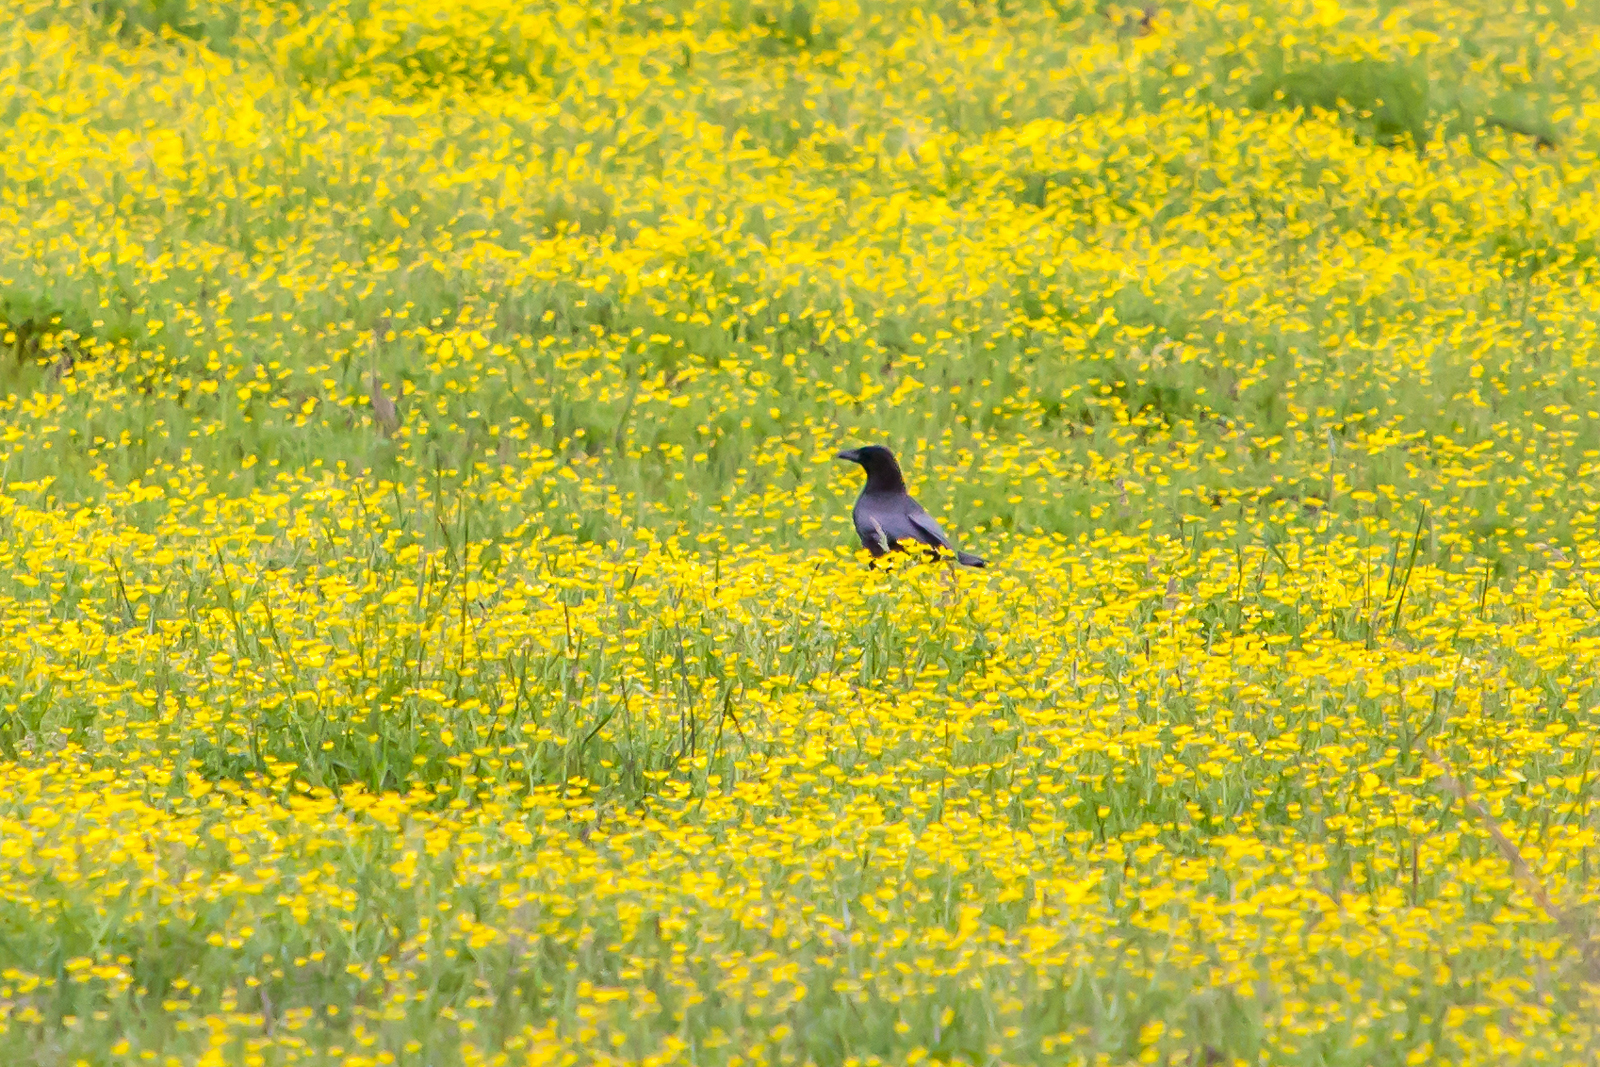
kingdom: Animalia
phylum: Chordata
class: Aves
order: Passeriformes
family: Corvidae
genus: Corvus
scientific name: Corvus brachyrhynchos
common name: American crow
